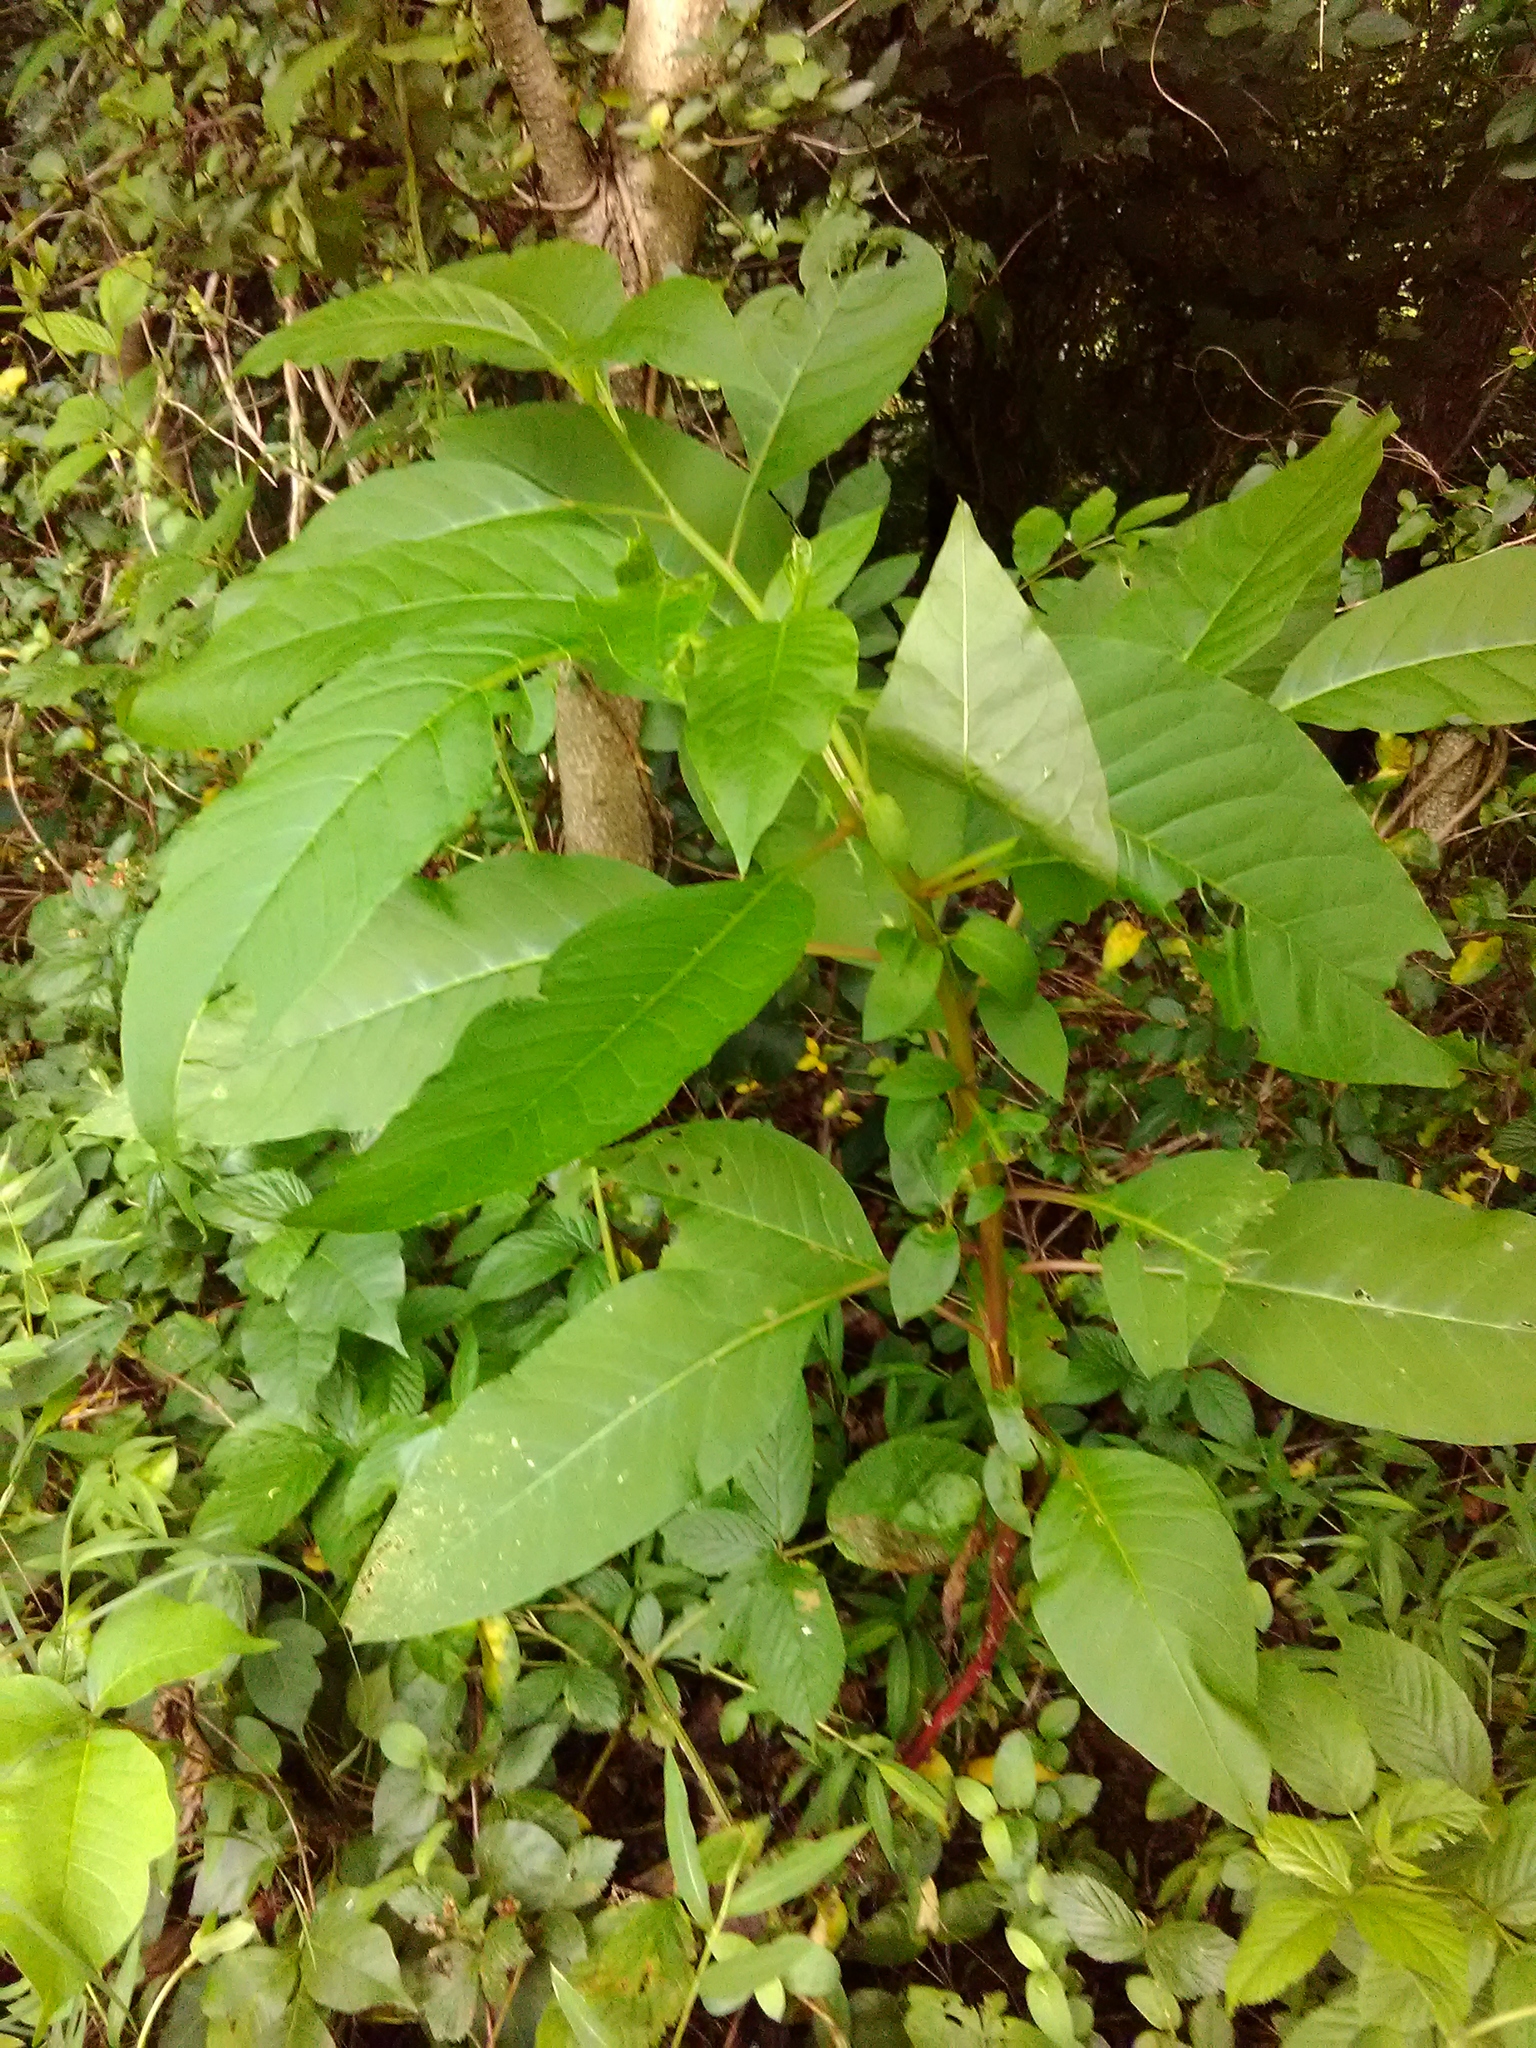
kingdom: Plantae
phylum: Tracheophyta
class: Magnoliopsida
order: Caryophyllales
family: Phytolaccaceae
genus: Phytolacca
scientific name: Phytolacca americana
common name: American pokeweed
